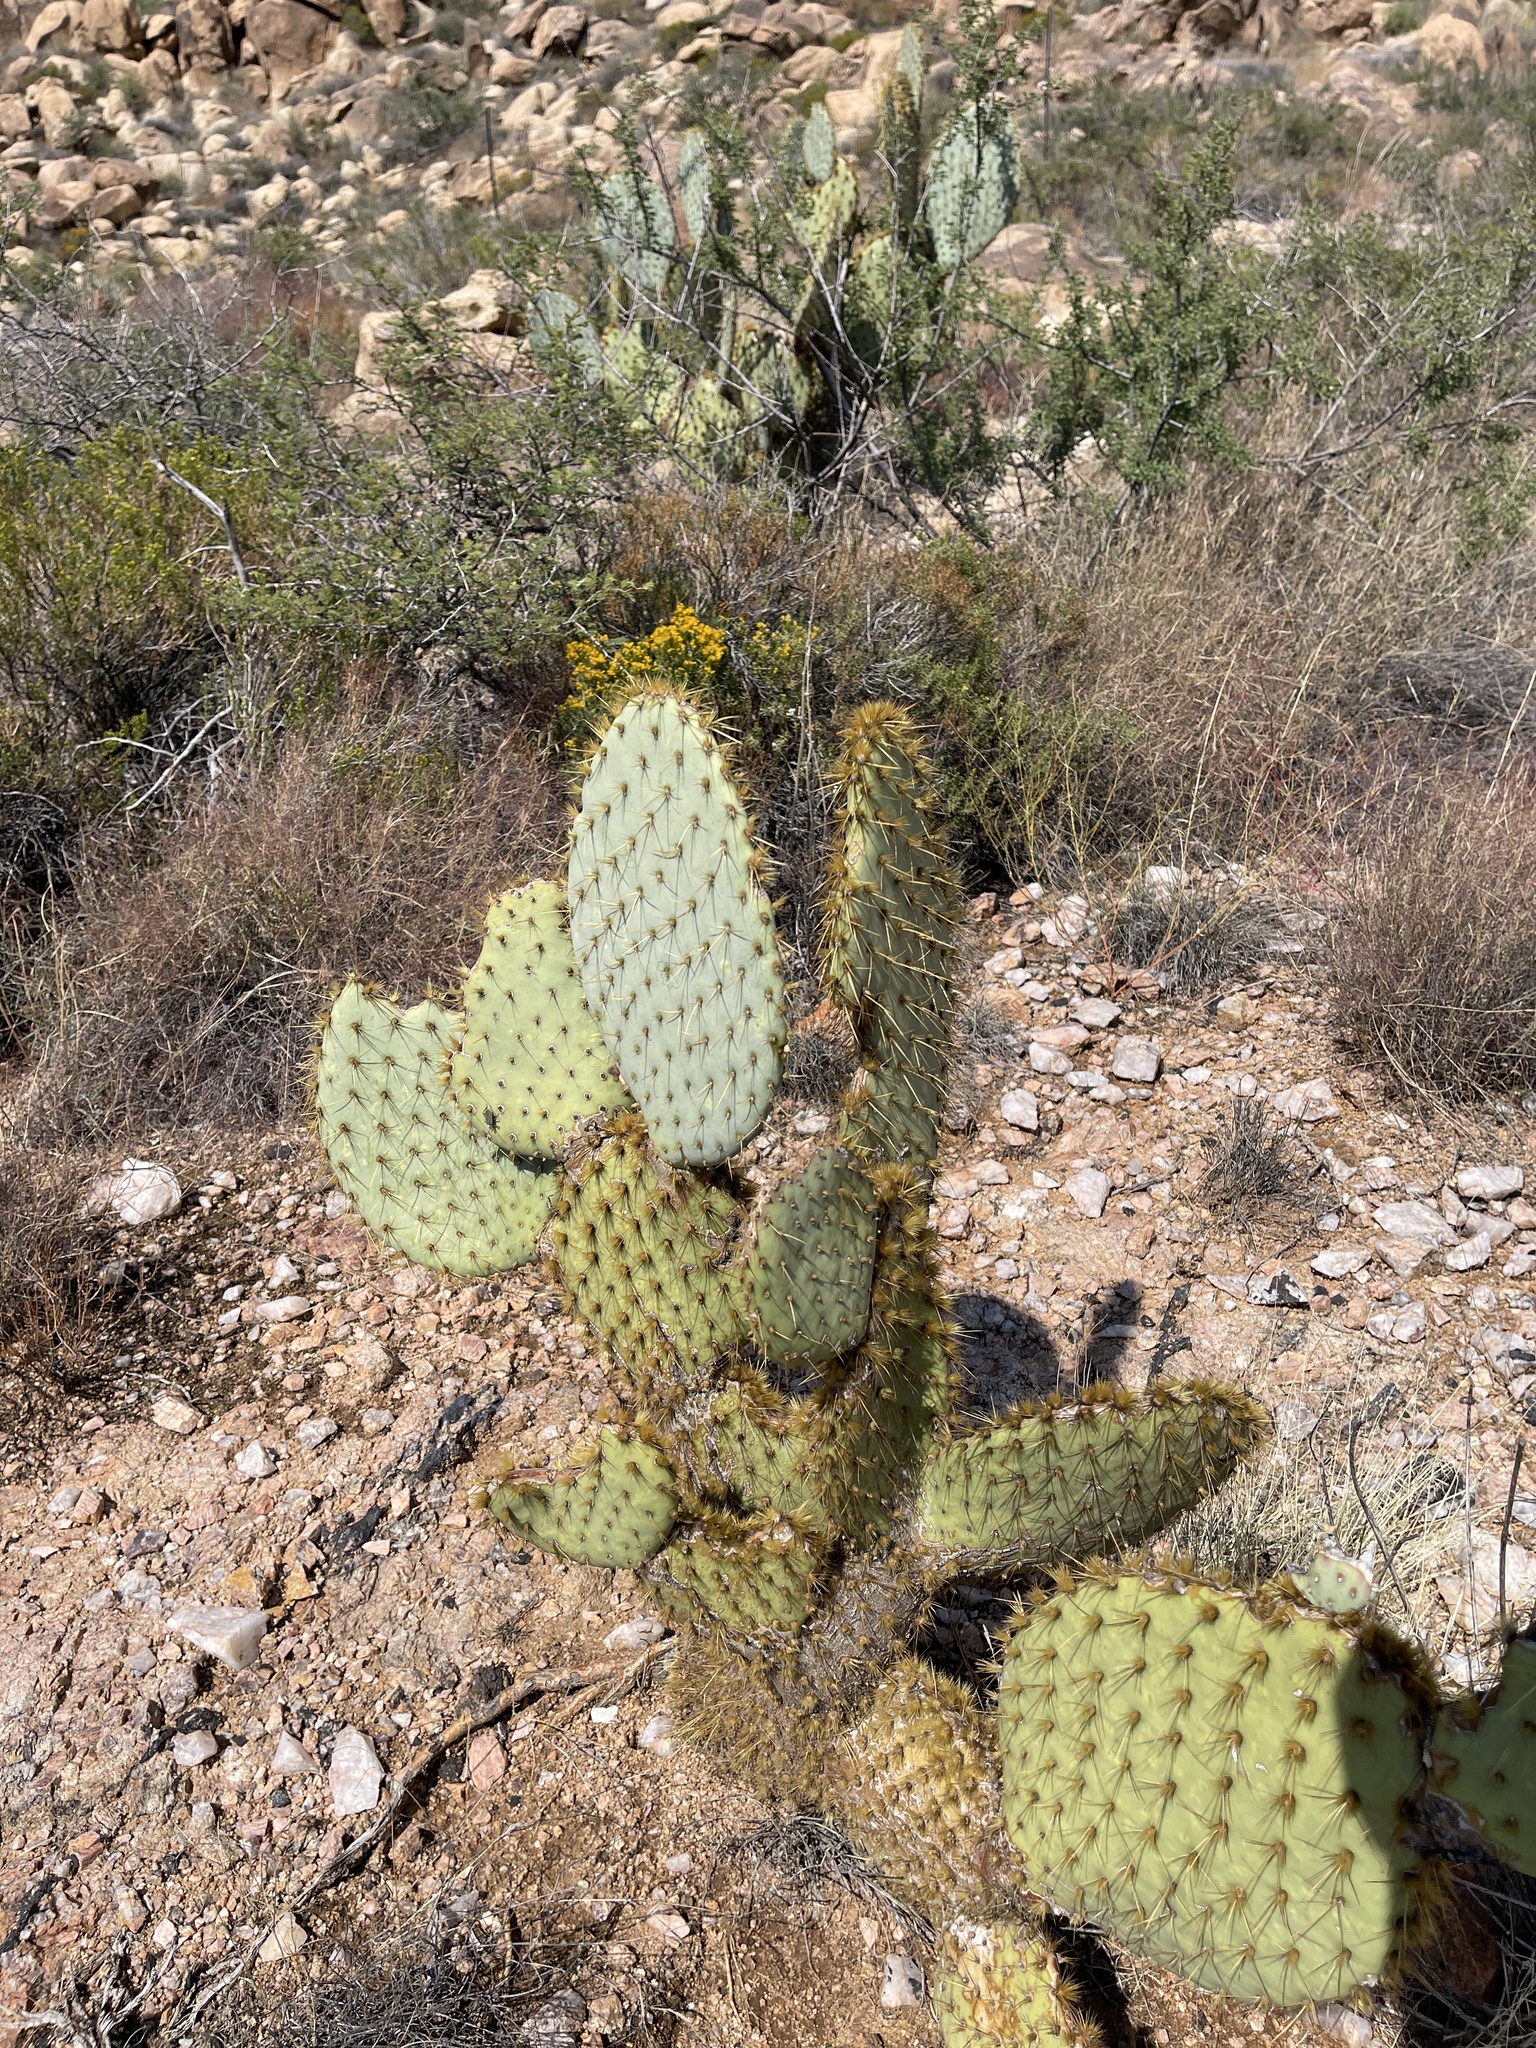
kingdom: Plantae
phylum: Tracheophyta
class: Magnoliopsida
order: Caryophyllales
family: Cactaceae
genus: Opuntia
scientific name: Opuntia chlorotica
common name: Dollar-joint prickly-pear
